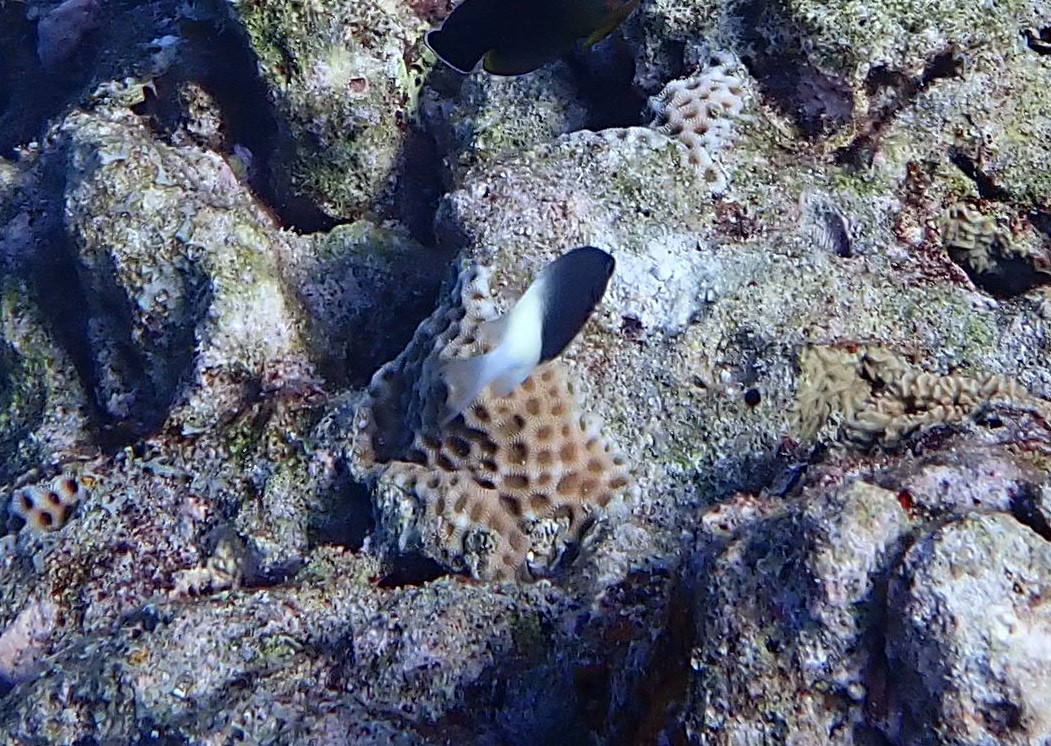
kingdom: Animalia
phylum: Chordata
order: Perciformes
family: Pomacentridae
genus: Chromis
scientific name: Chromis fieldi
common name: Chocolatedip chromis
